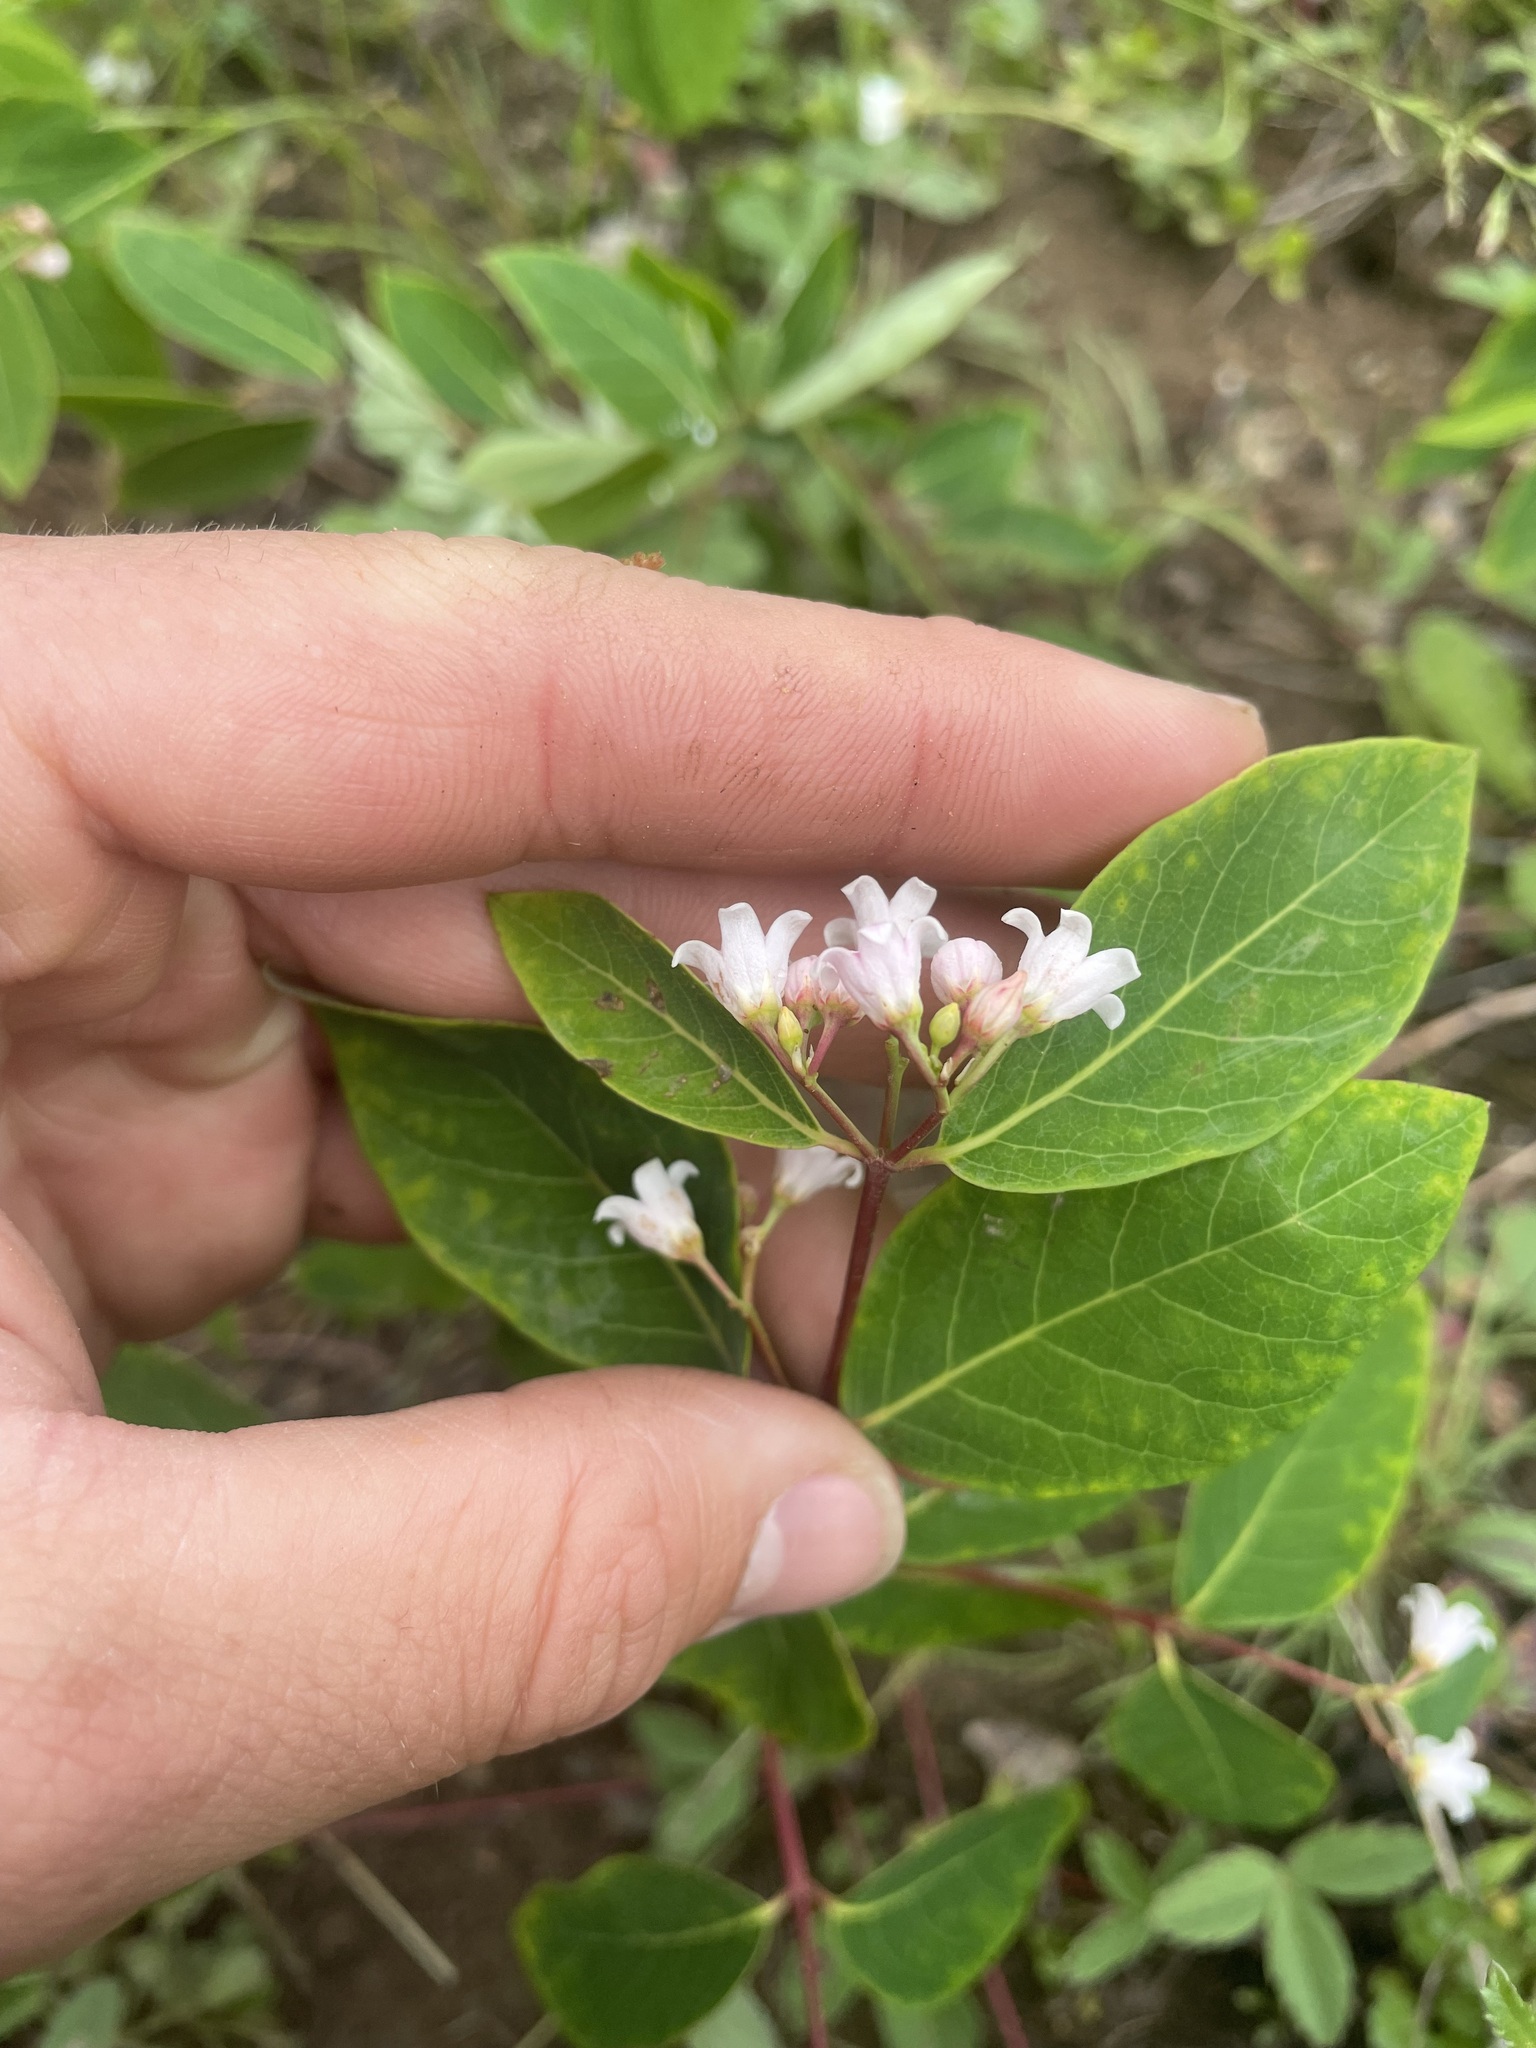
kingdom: Plantae
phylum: Tracheophyta
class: Magnoliopsida
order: Gentianales
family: Apocynaceae
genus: Apocynum
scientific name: Apocynum androsaemifolium
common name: Spreading dogbane
